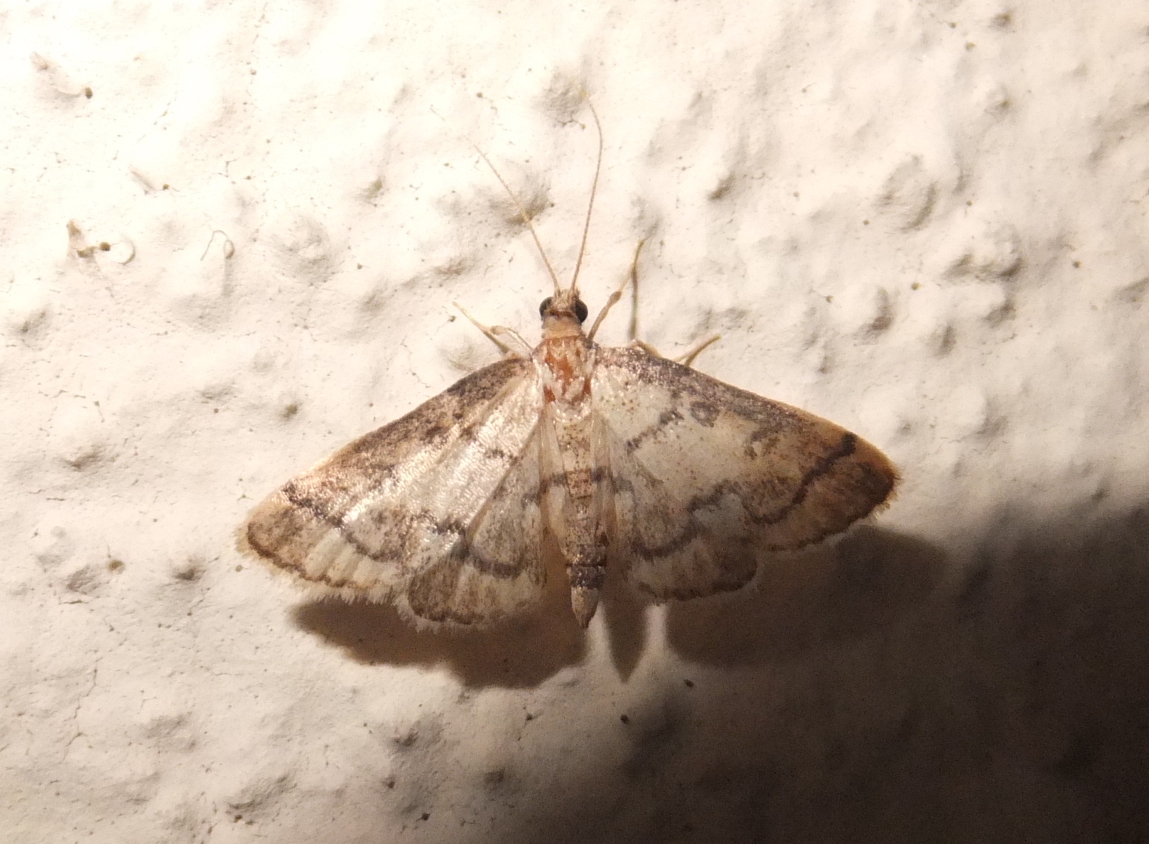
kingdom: Animalia
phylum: Arthropoda
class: Insecta
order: Lepidoptera
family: Crambidae
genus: Metasia
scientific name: Metasia ophialis
